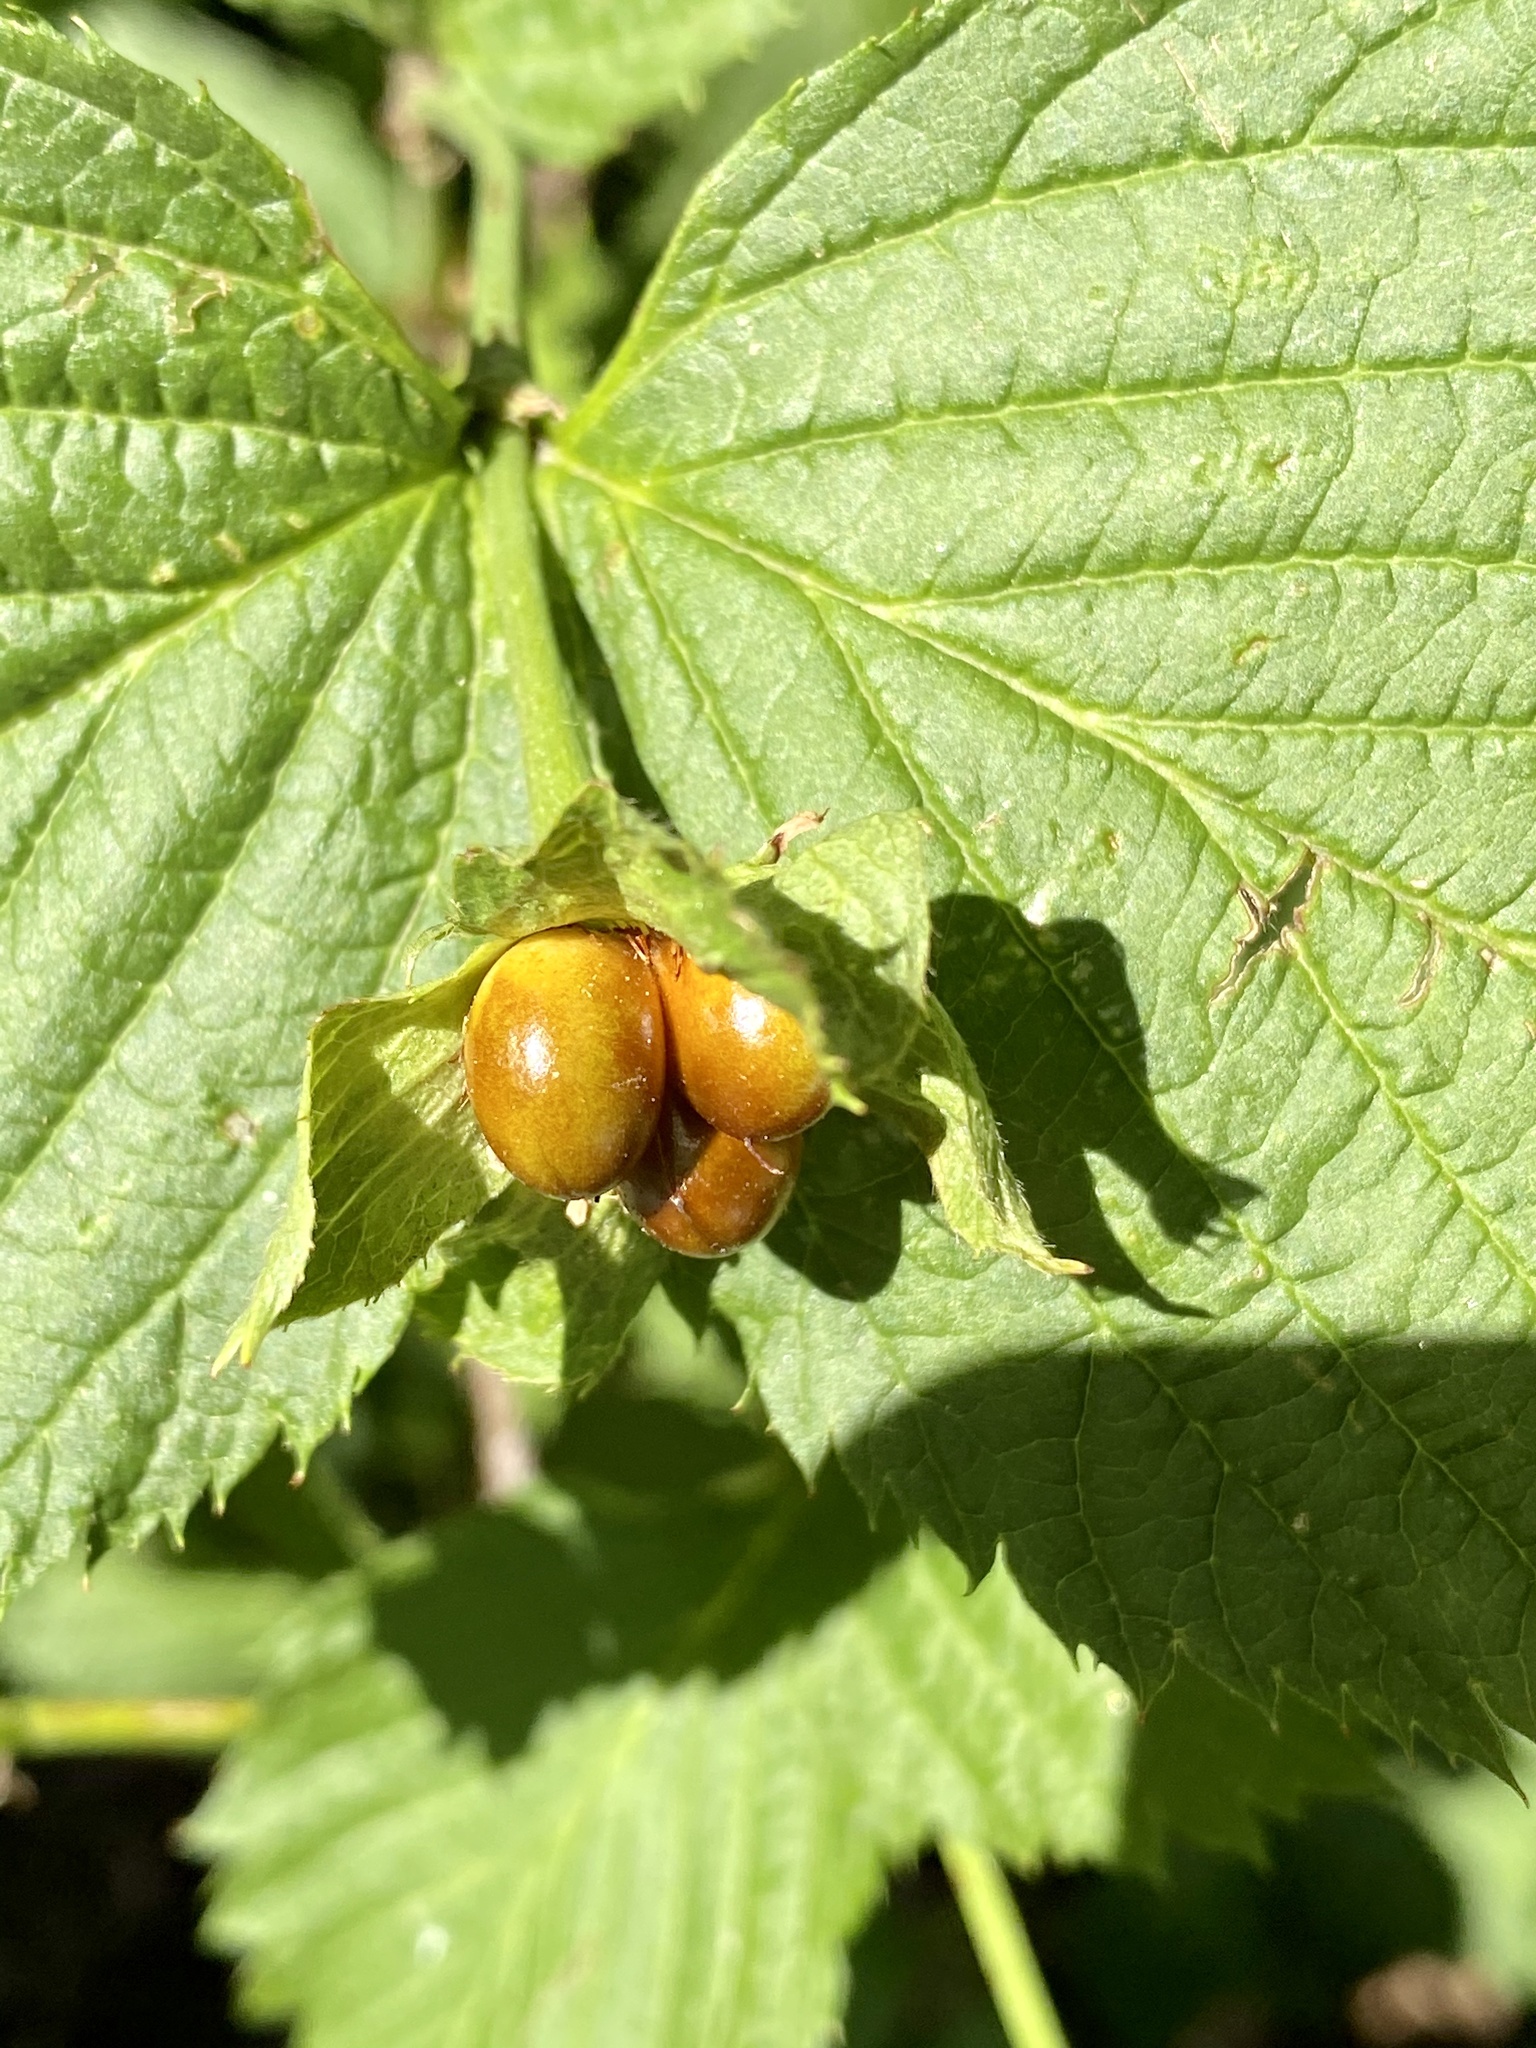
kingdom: Plantae
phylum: Tracheophyta
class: Magnoliopsida
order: Rosales
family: Rosaceae
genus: Rhodotypos
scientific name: Rhodotypos scandens
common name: Jetbead
